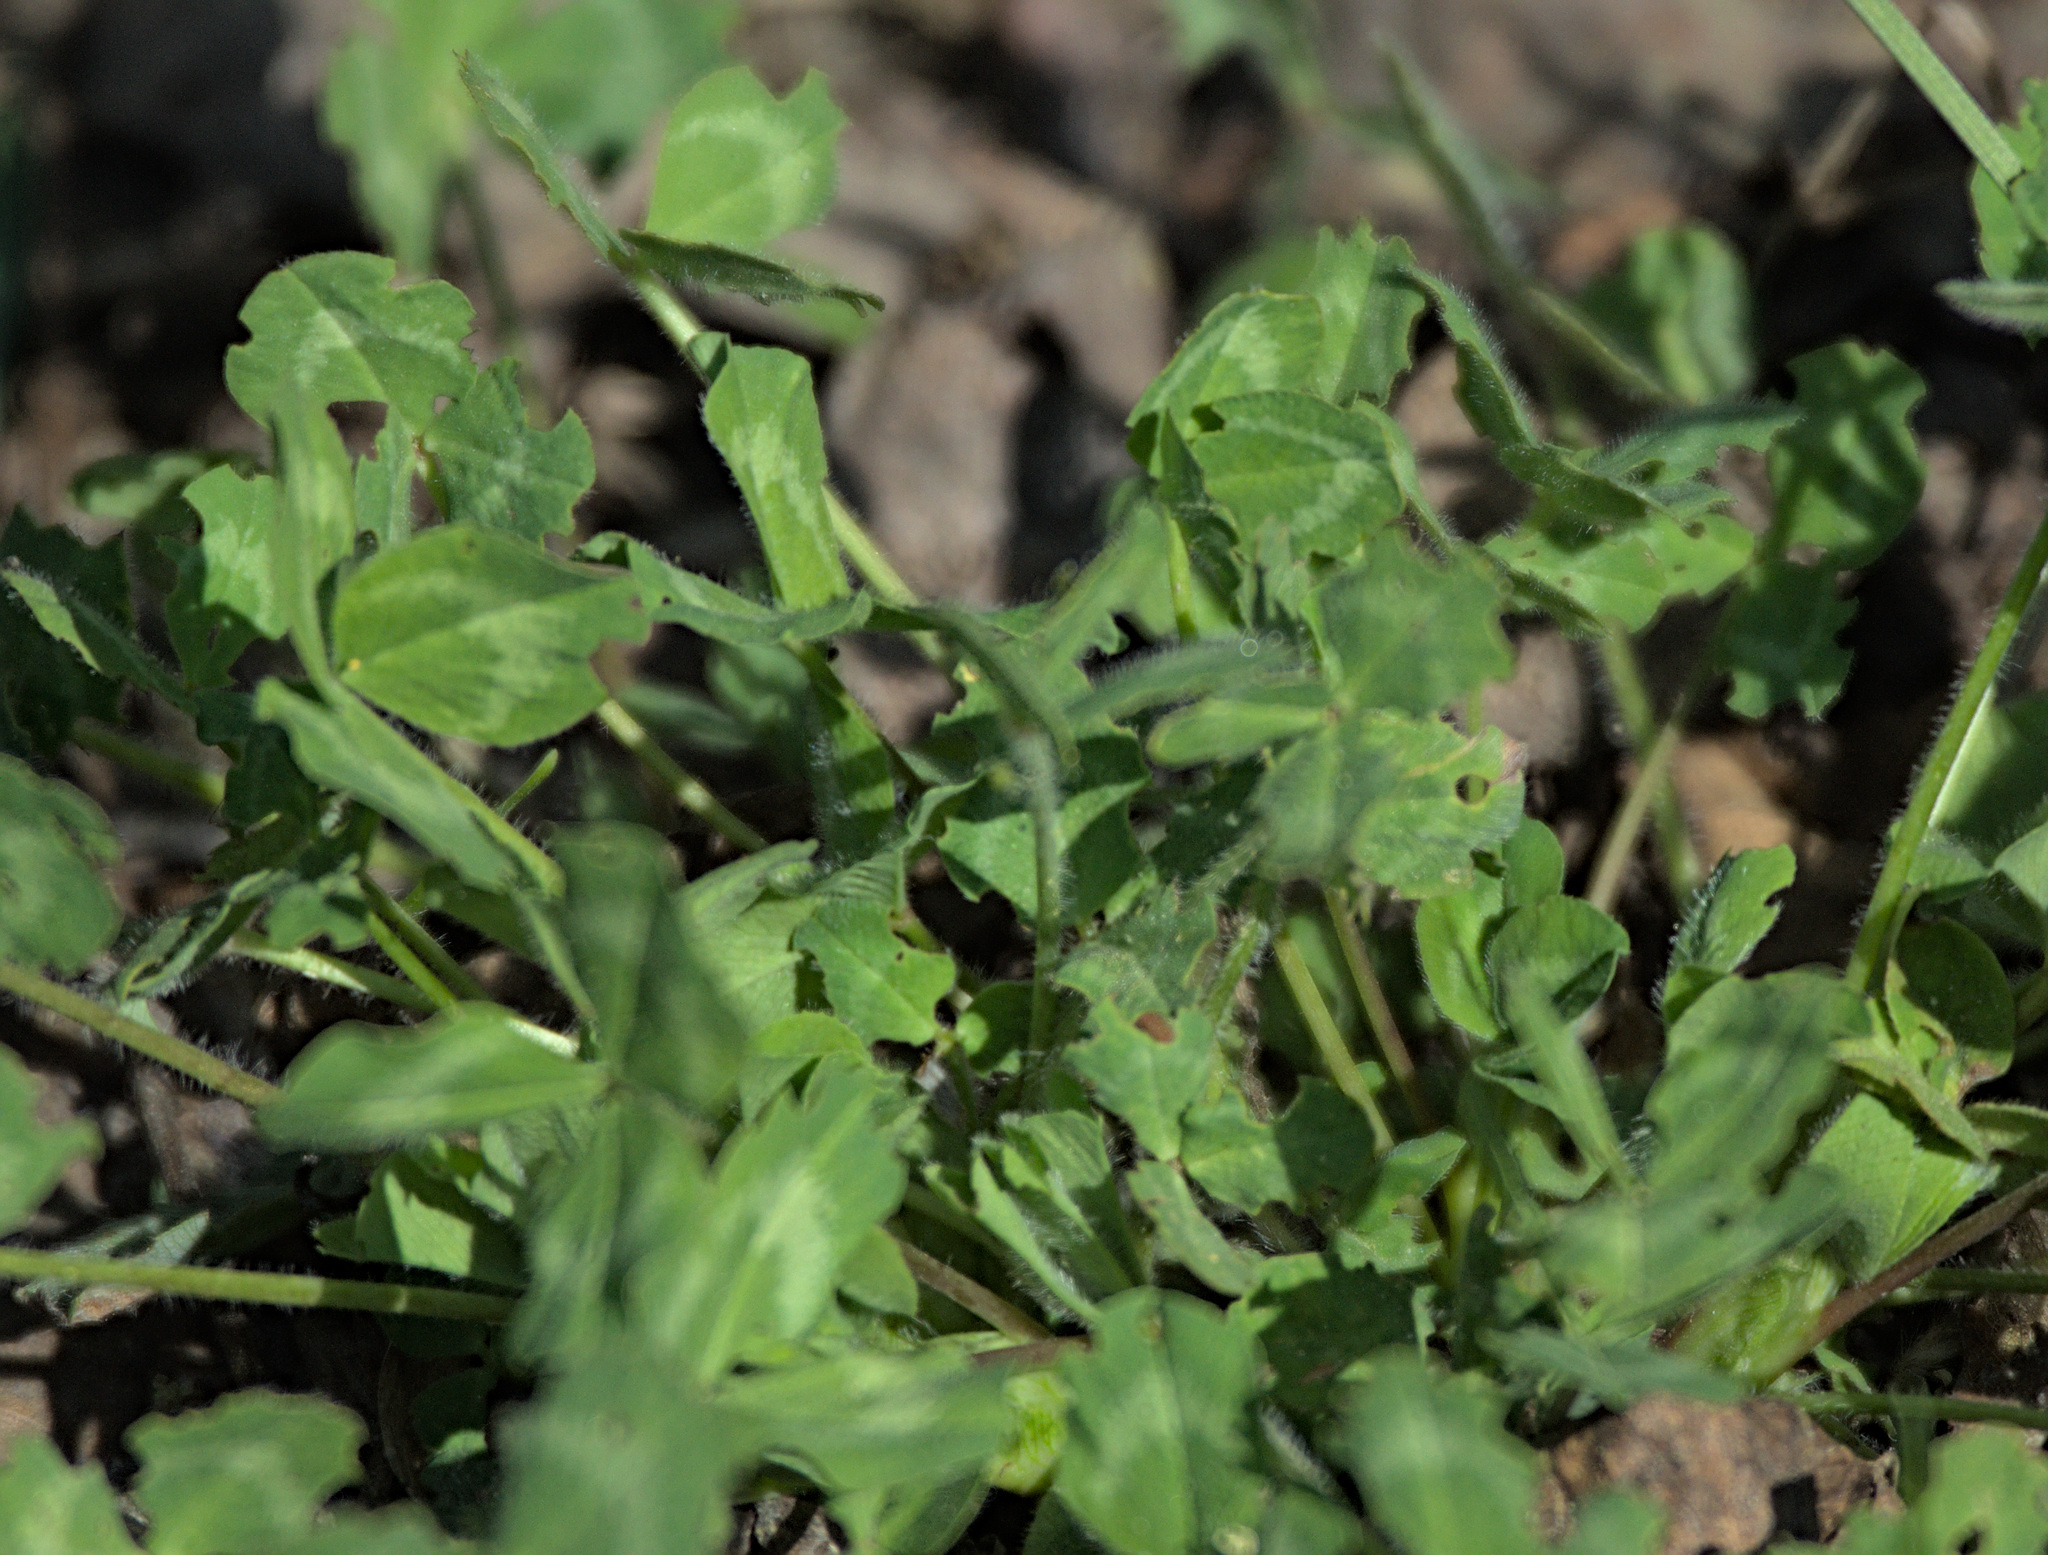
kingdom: Plantae
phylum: Tracheophyta
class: Magnoliopsida
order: Fabales
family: Fabaceae
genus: Trifolium
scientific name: Trifolium pratense
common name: Red clover
